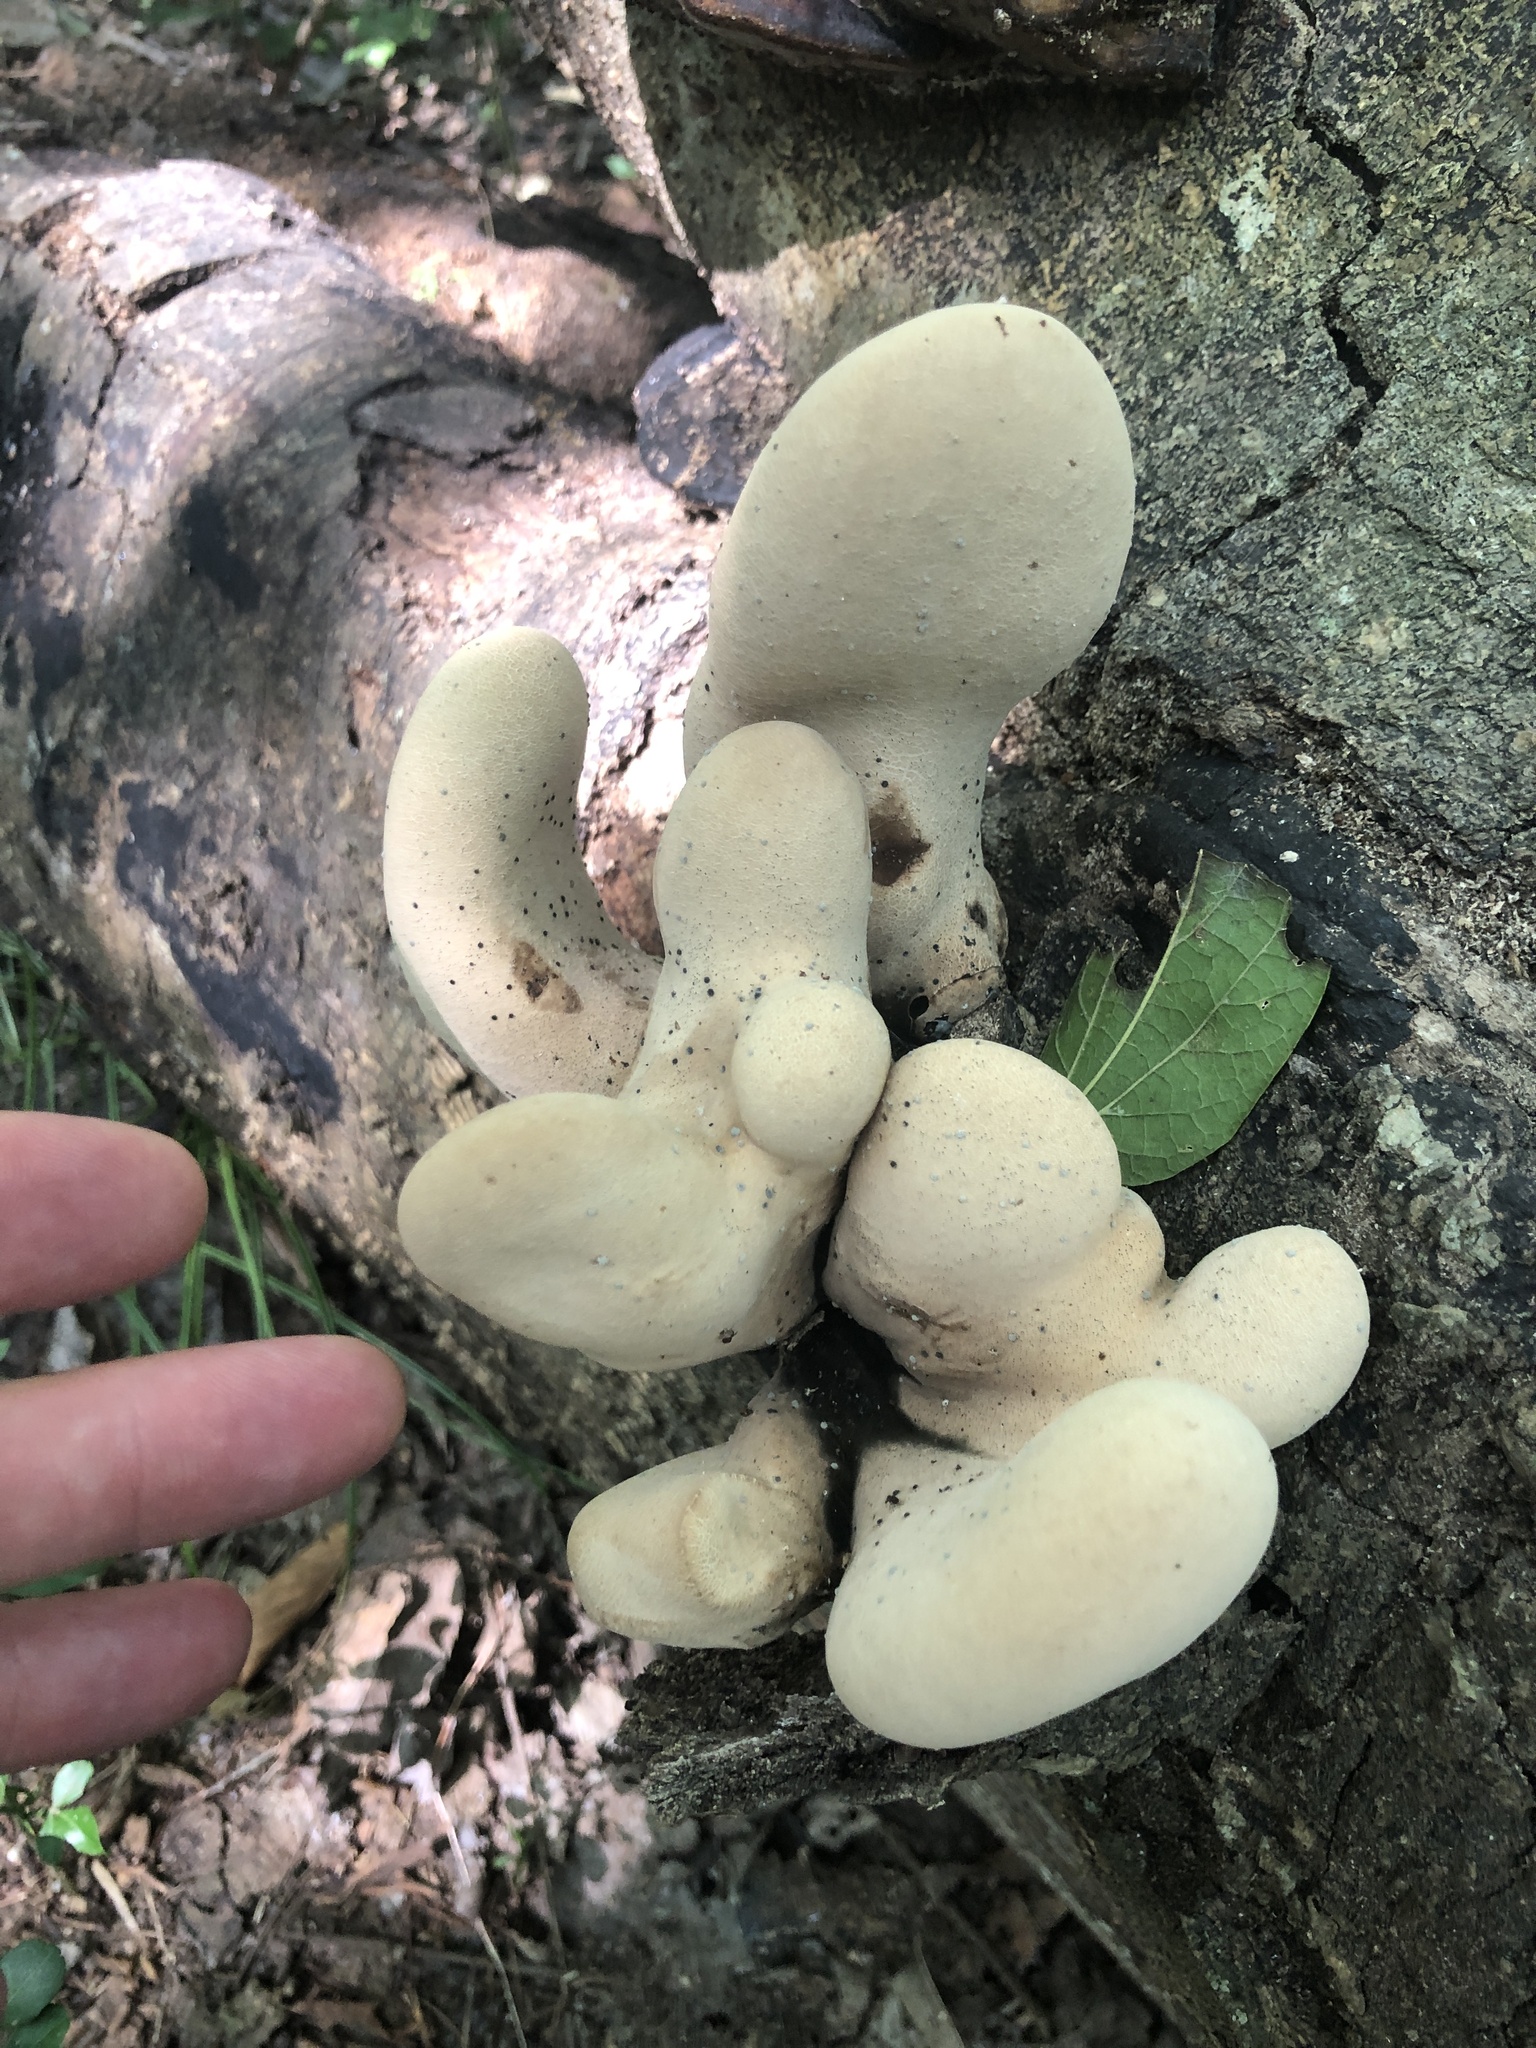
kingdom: Fungi
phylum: Ascomycota
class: Sordariomycetes
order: Xylariales
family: Xylariaceae
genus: Xylosphaera
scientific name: Xylosphaera poitei
